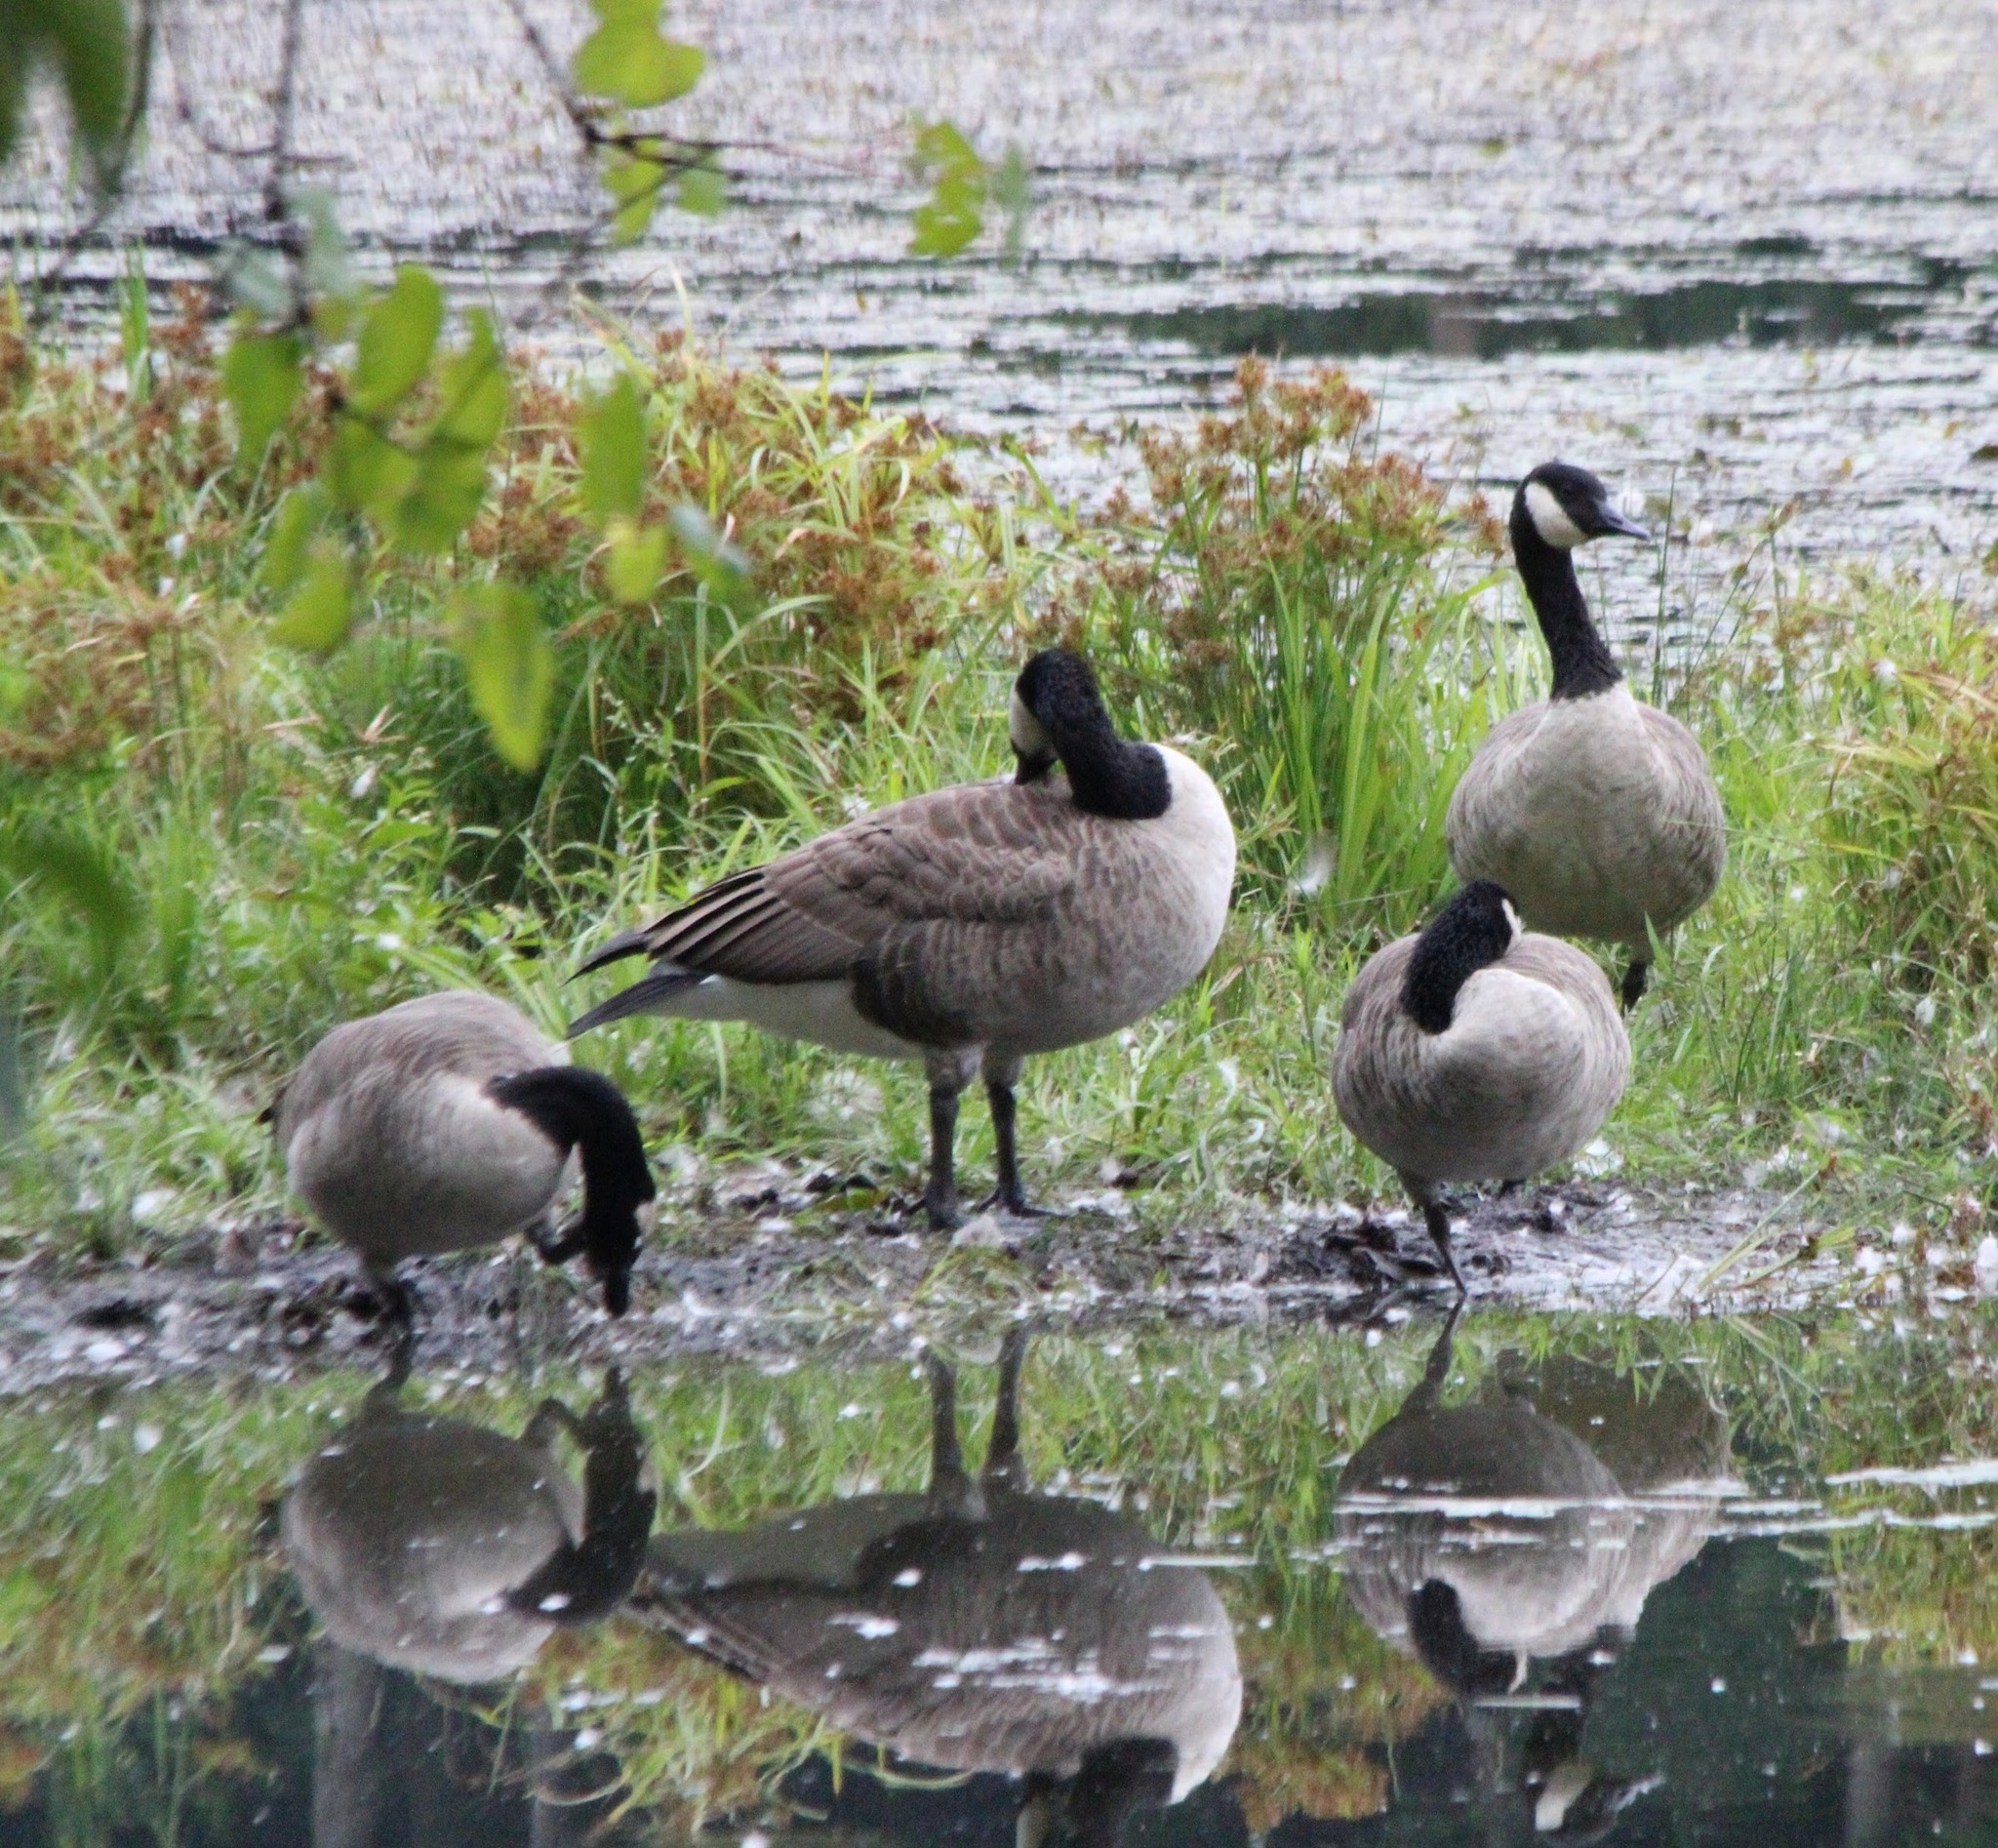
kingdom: Animalia
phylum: Chordata
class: Aves
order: Anseriformes
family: Anatidae
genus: Branta
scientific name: Branta canadensis
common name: Canada goose
